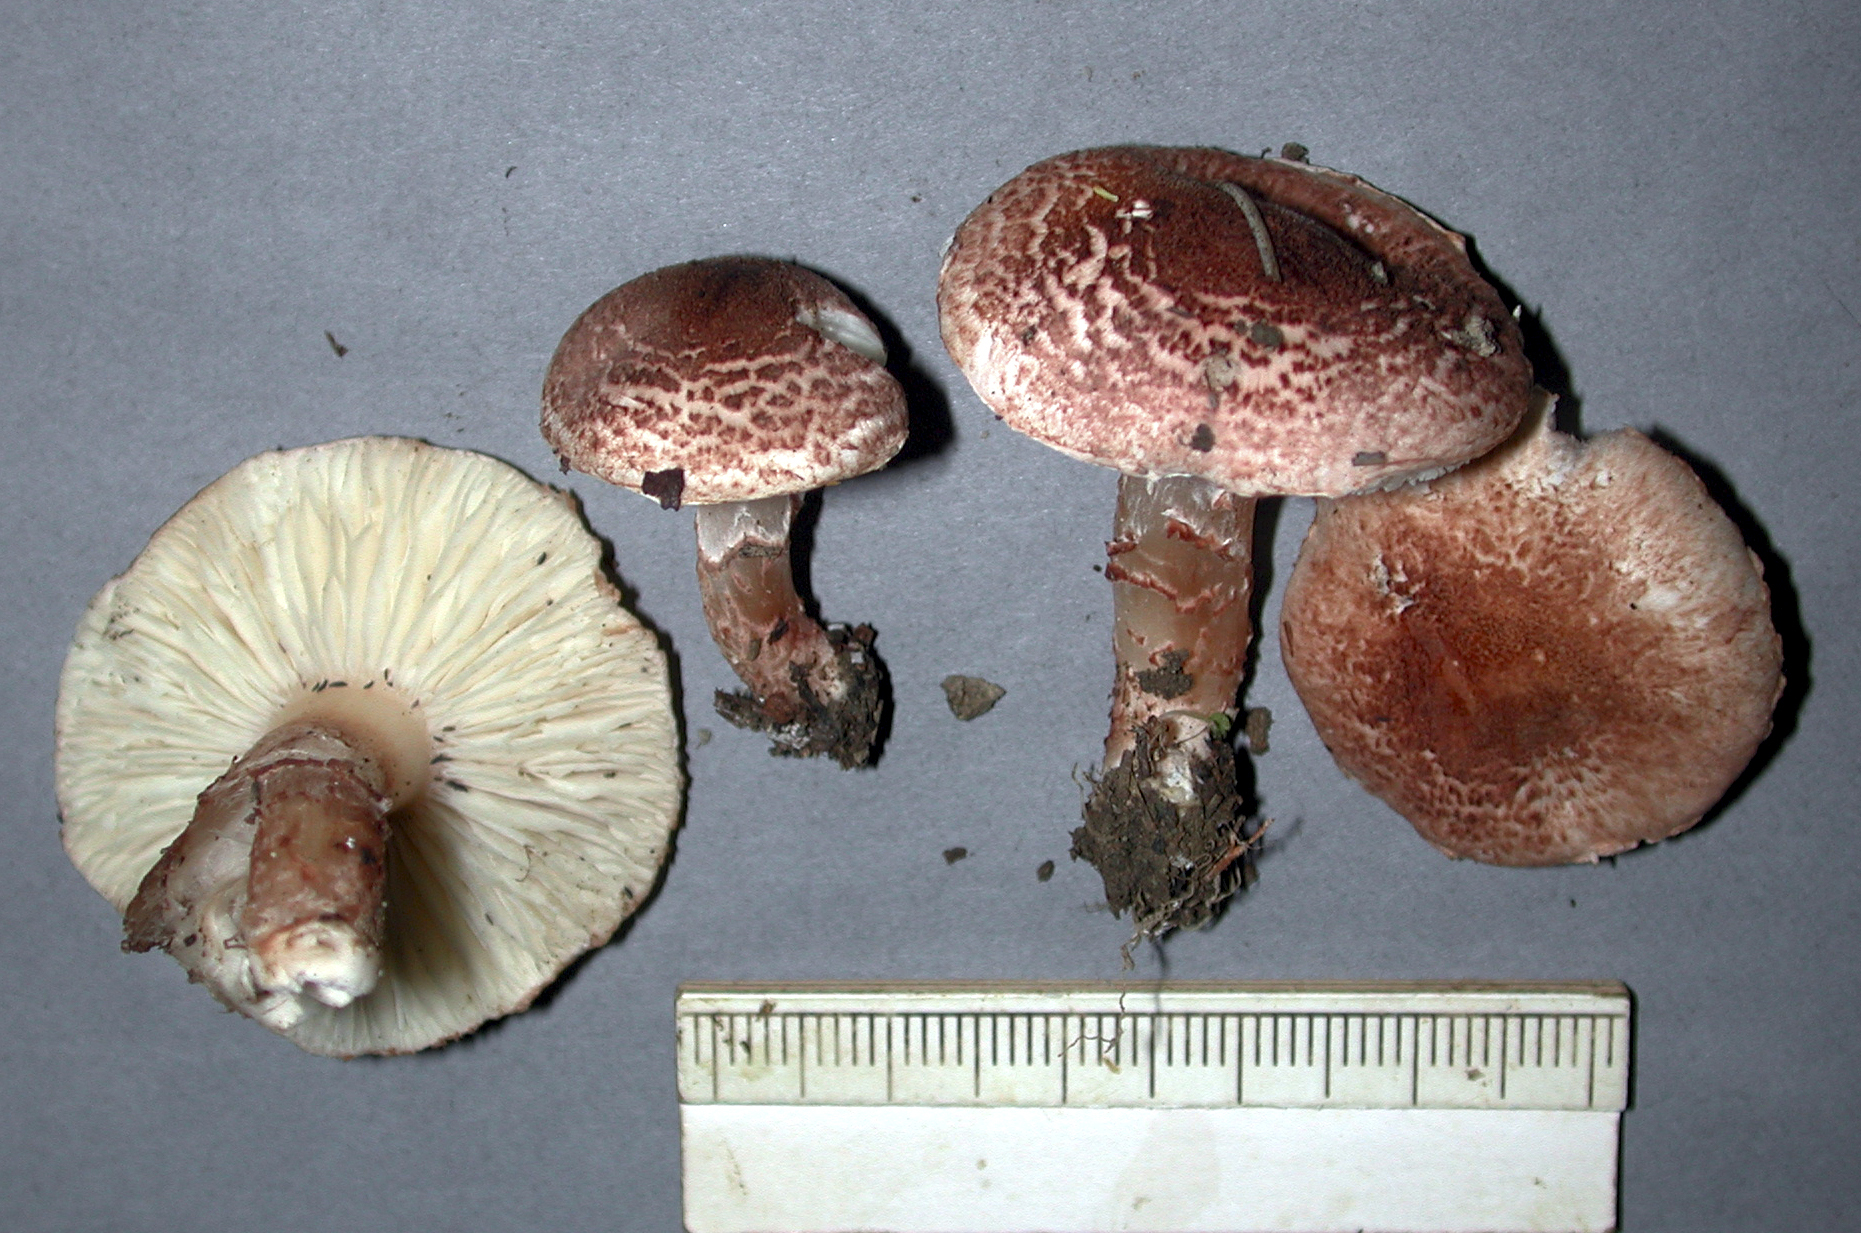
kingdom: Fungi
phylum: Basidiomycota
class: Agaricomycetes
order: Agaricales
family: Agaricaceae
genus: Lepiota
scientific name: Lepiota subincarnata
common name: Fatal dapperling
